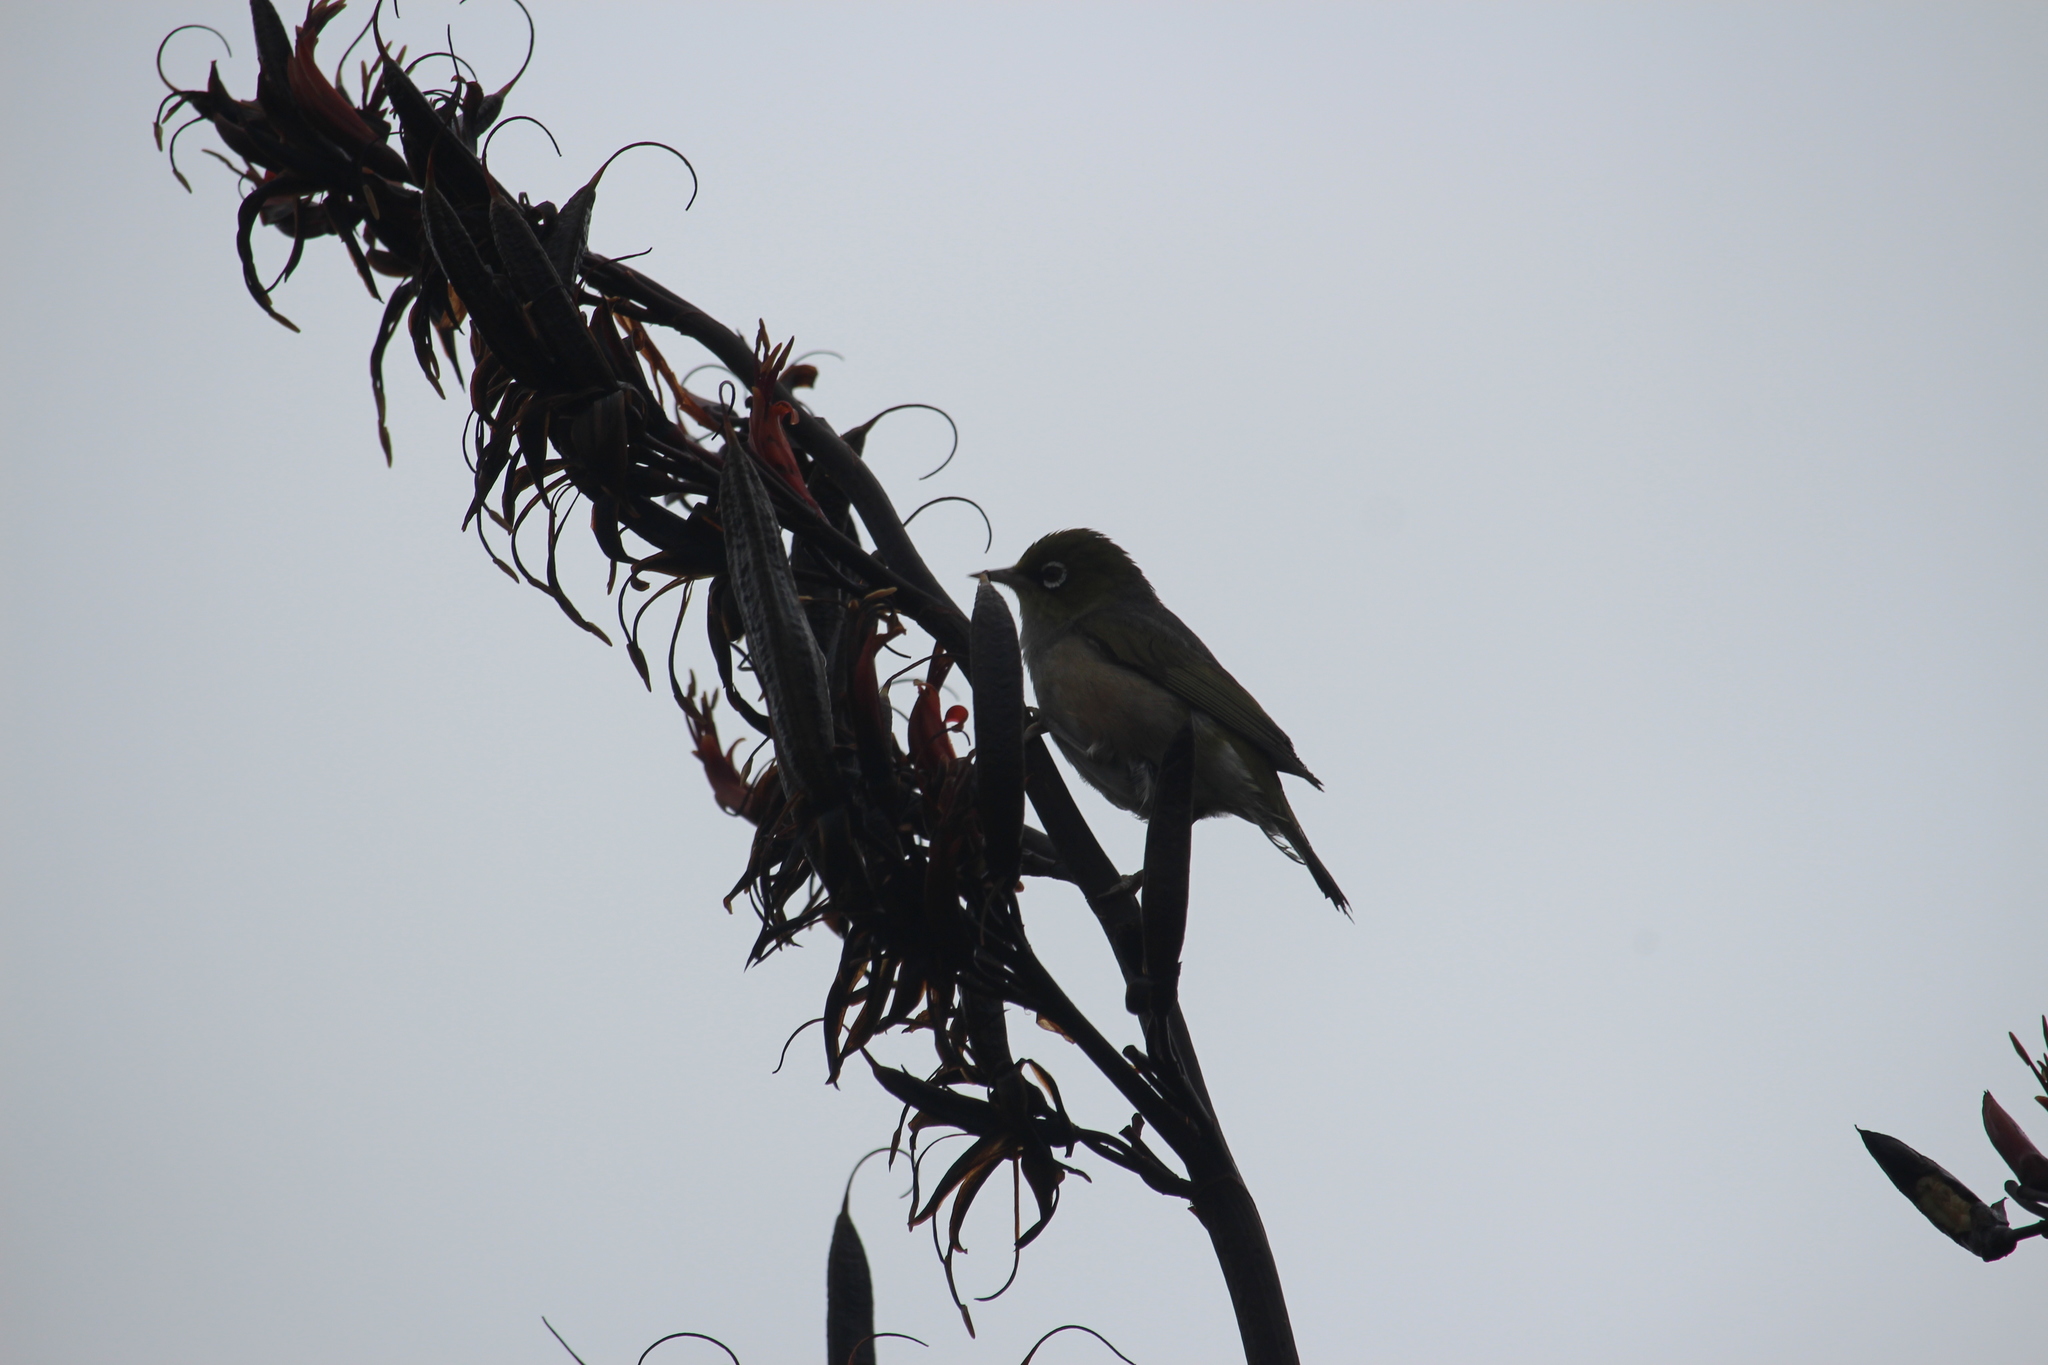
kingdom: Animalia
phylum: Chordata
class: Aves
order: Passeriformes
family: Zosteropidae
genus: Zosterops
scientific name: Zosterops lateralis
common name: Silvereye
